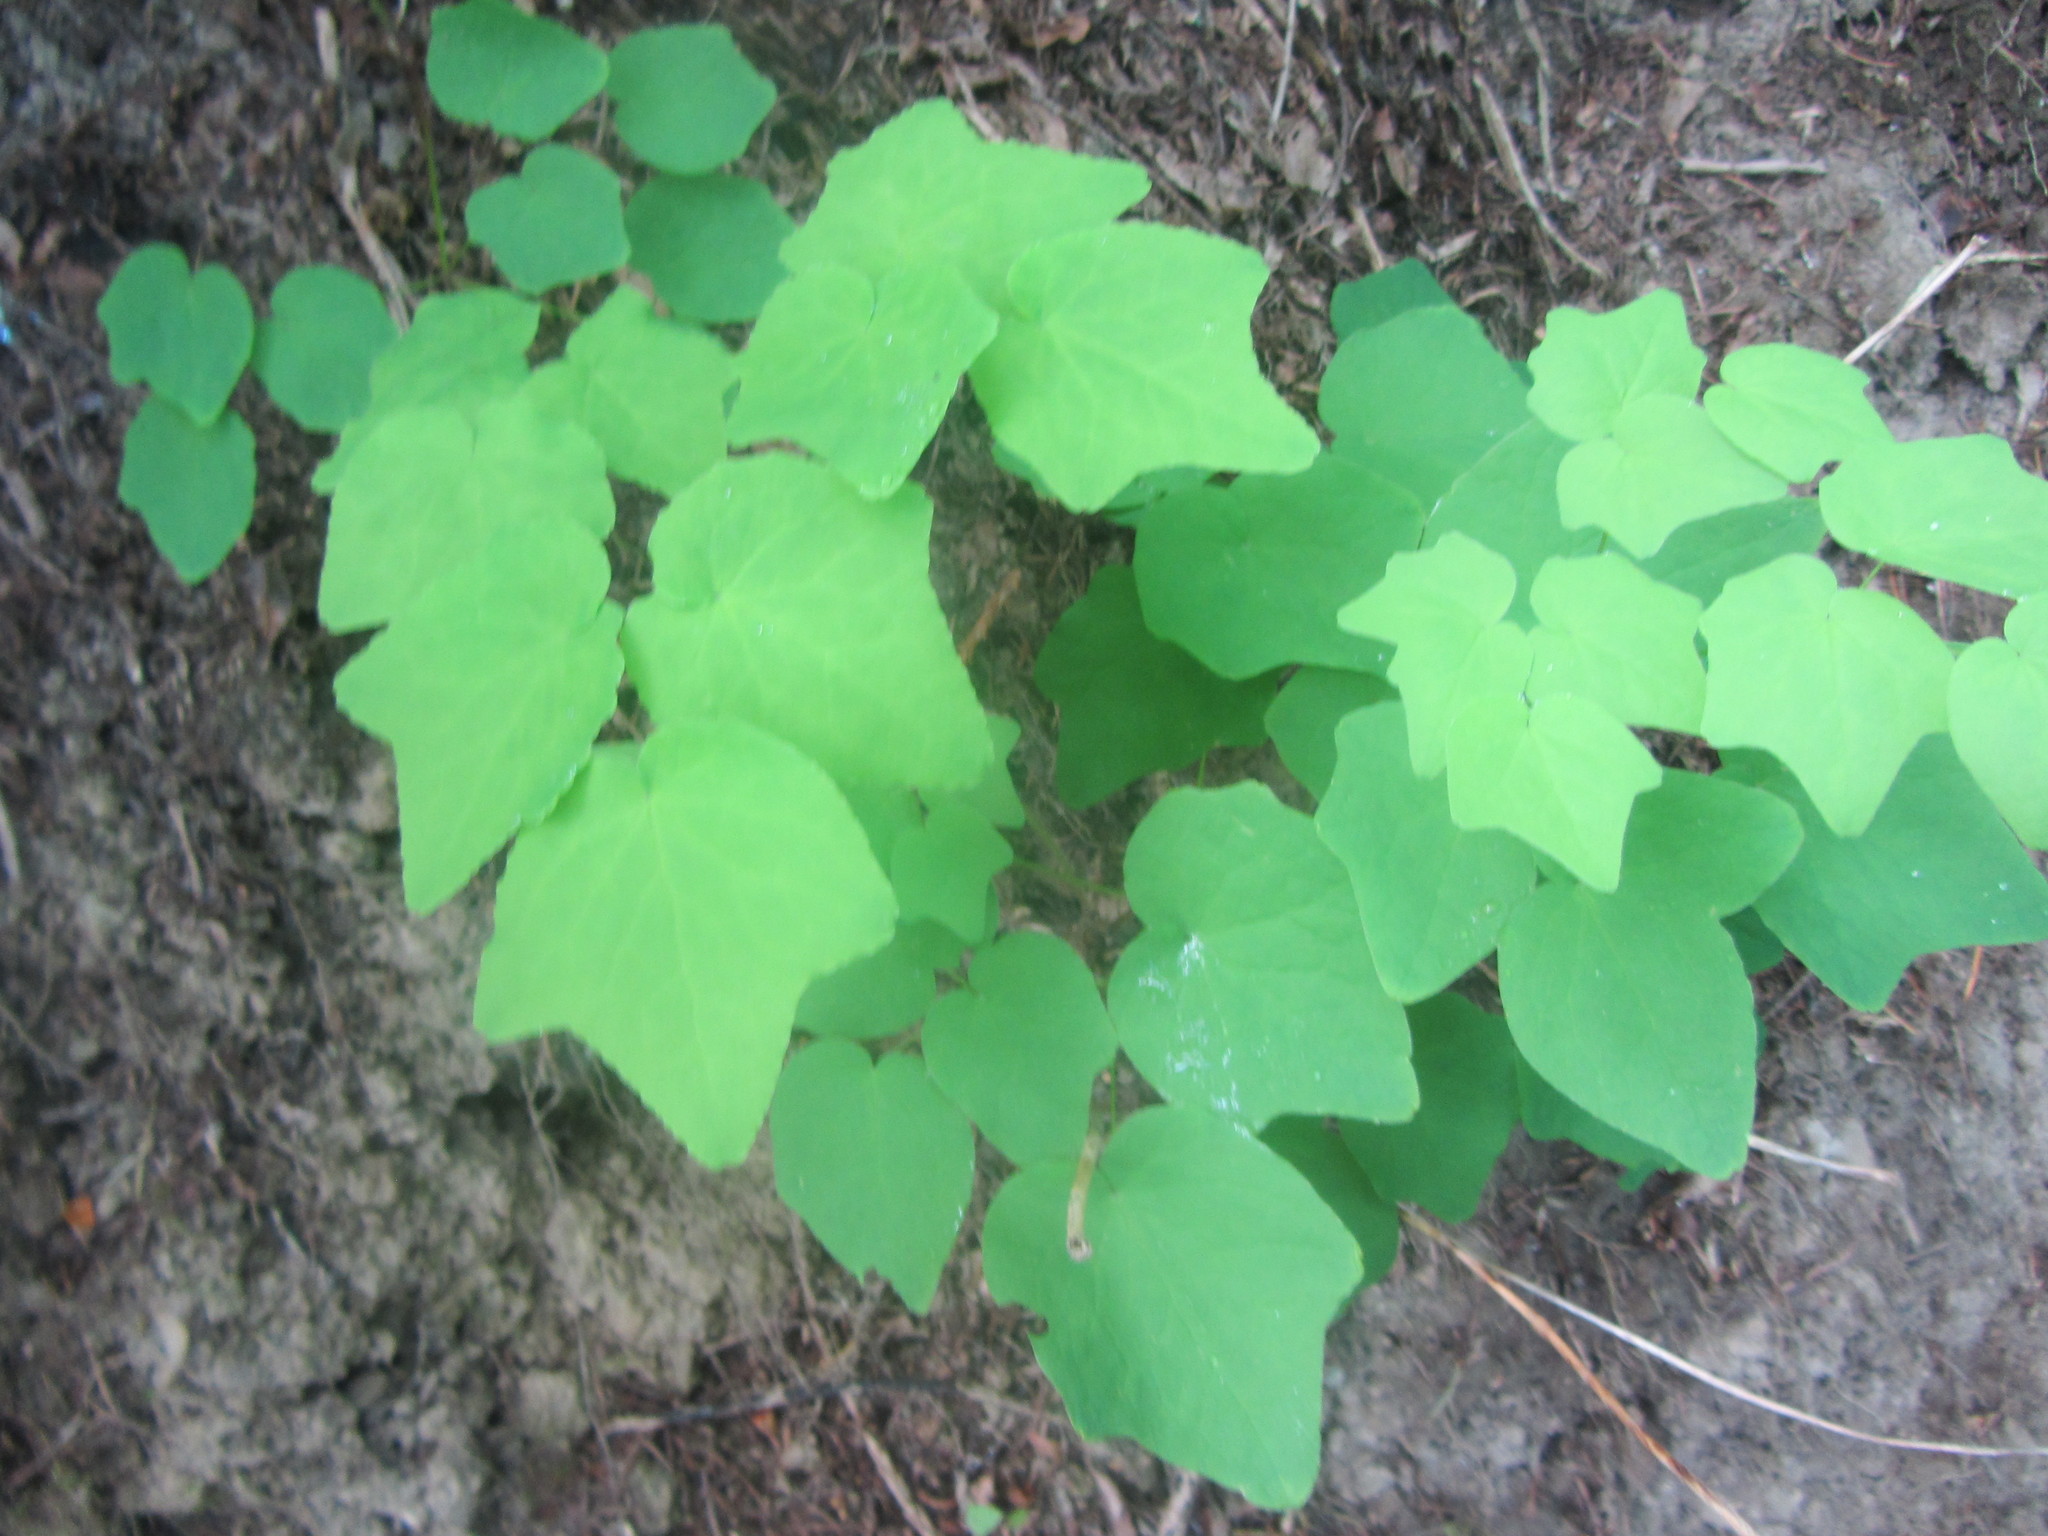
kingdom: Plantae
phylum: Tracheophyta
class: Magnoliopsida
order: Ranunculales
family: Berberidaceae
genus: Vancouveria
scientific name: Vancouveria hexandra
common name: Northern inside-out-flower
